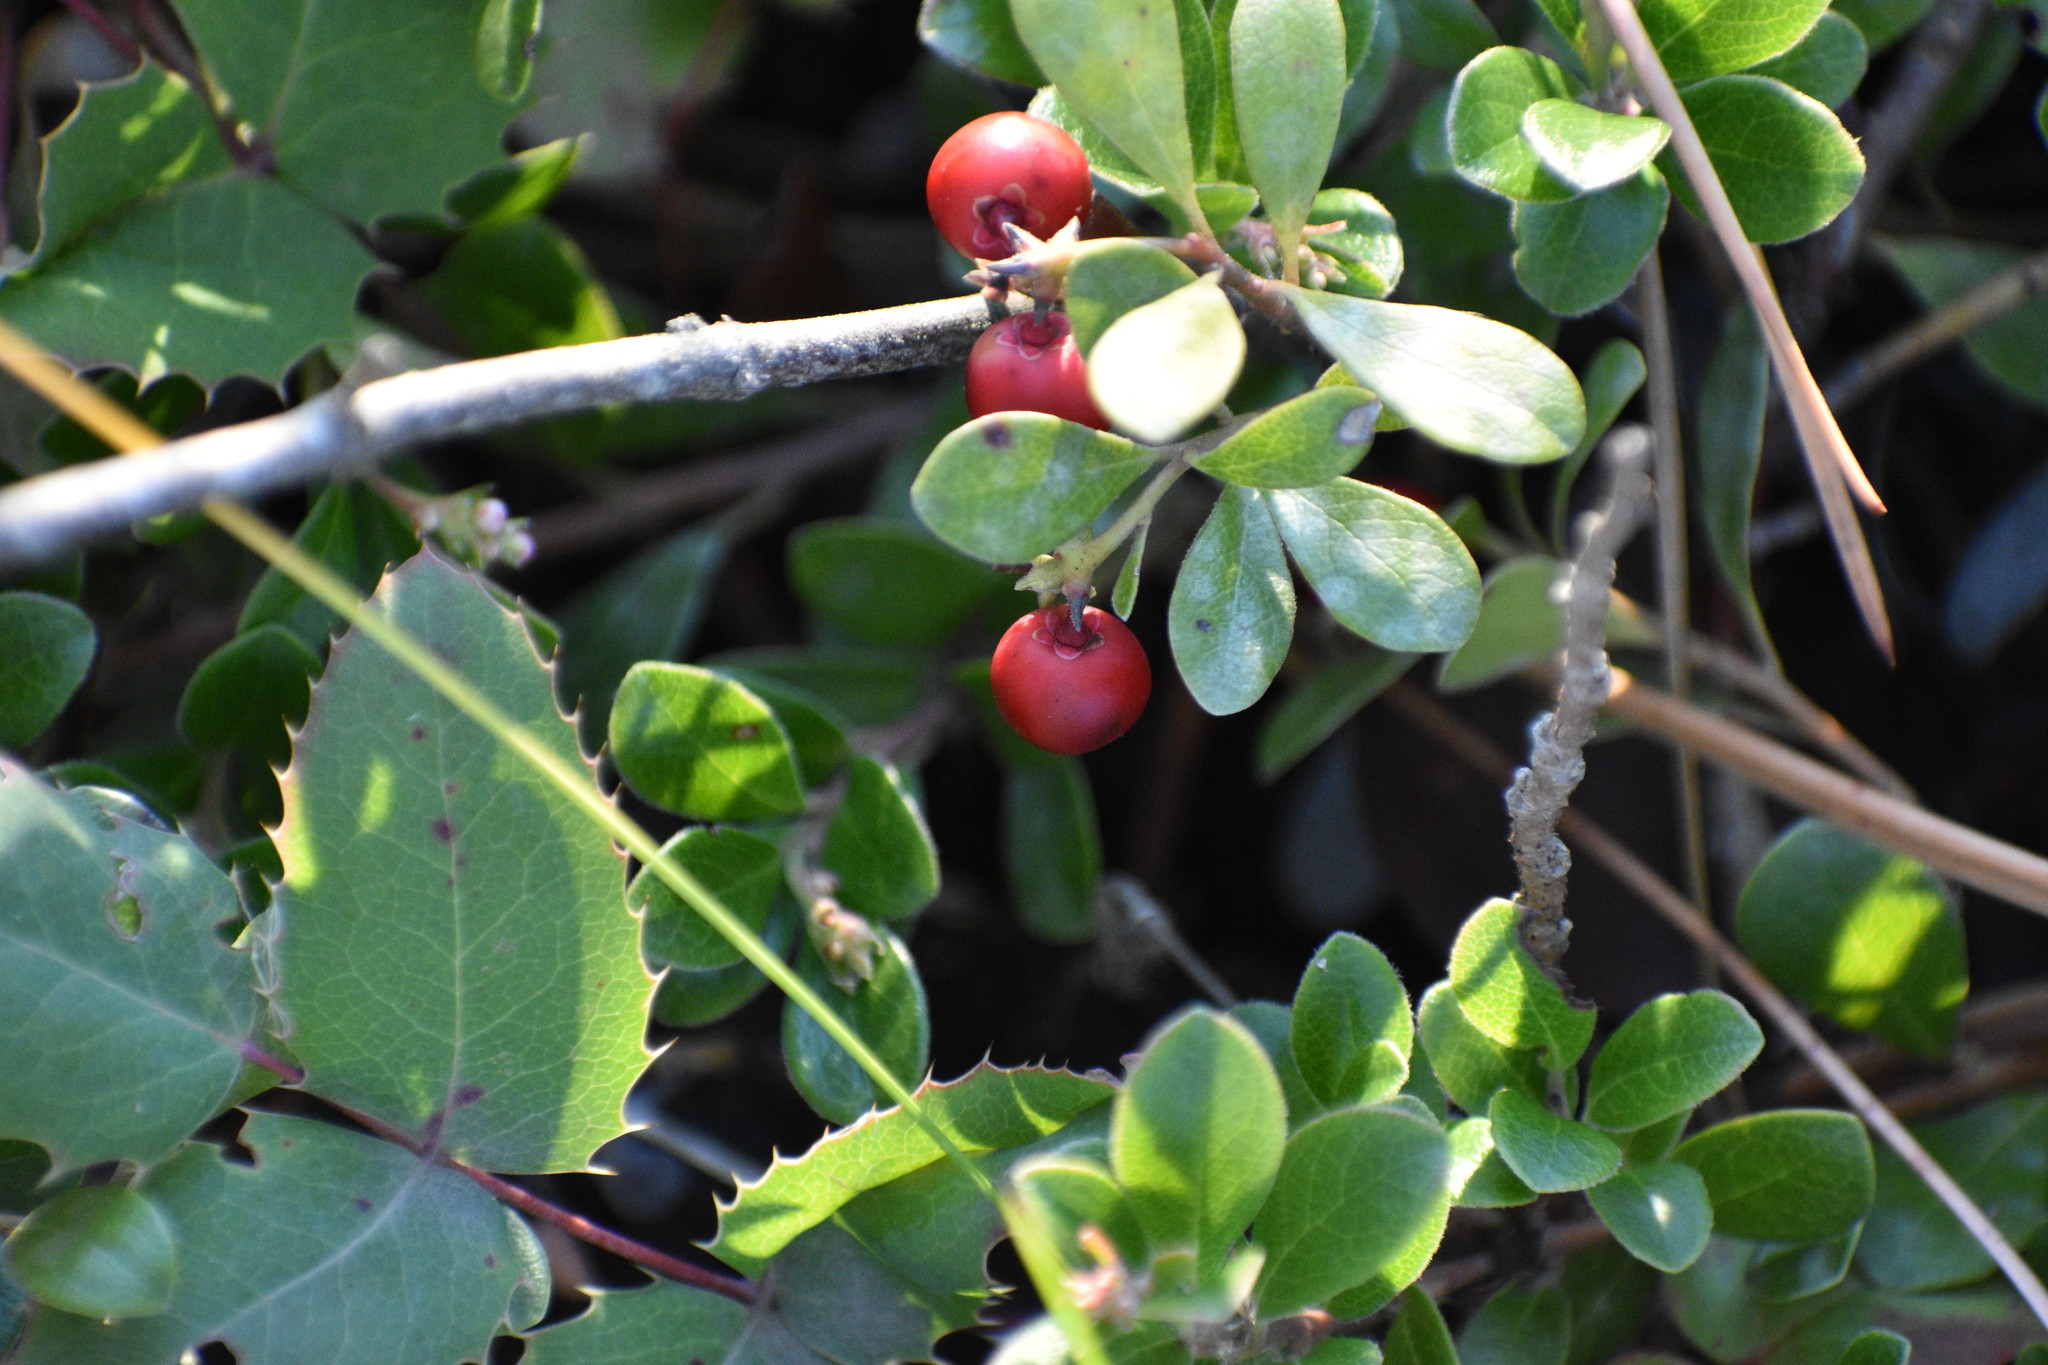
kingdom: Plantae
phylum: Tracheophyta
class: Magnoliopsida
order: Ericales
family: Ericaceae
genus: Arctostaphylos
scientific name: Arctostaphylos uva-ursi
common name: Bearberry
